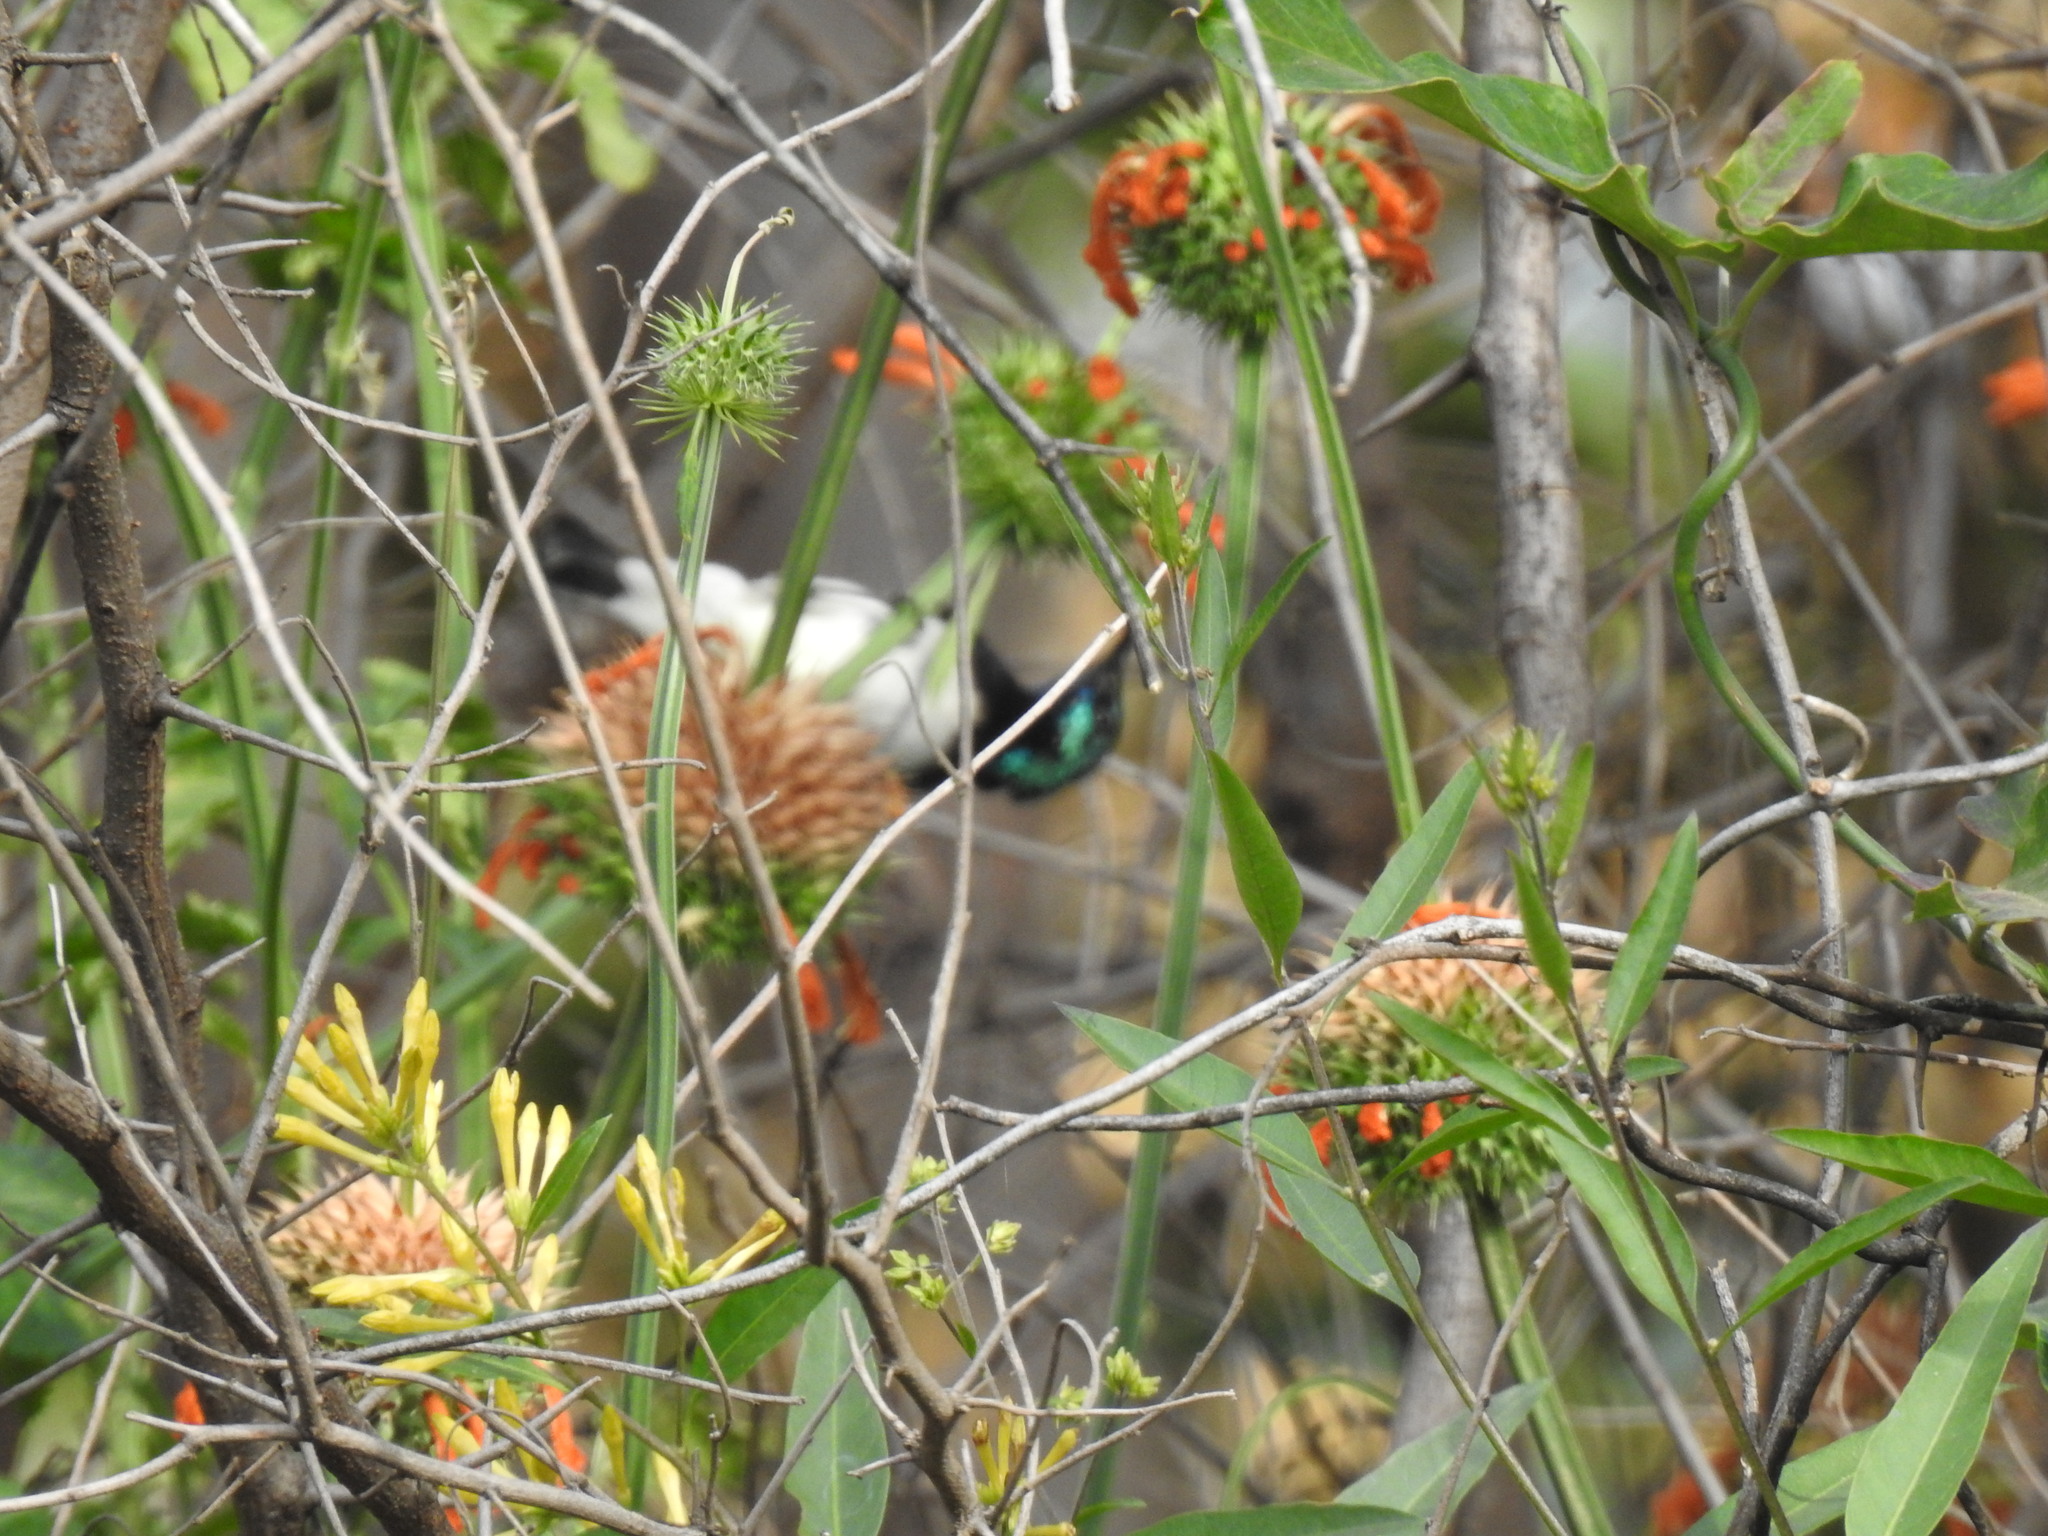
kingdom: Animalia
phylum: Chordata
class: Aves
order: Passeriformes
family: Nectariniidae
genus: Cinnyris
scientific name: Cinnyris talatala
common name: White-bellied sunbird
